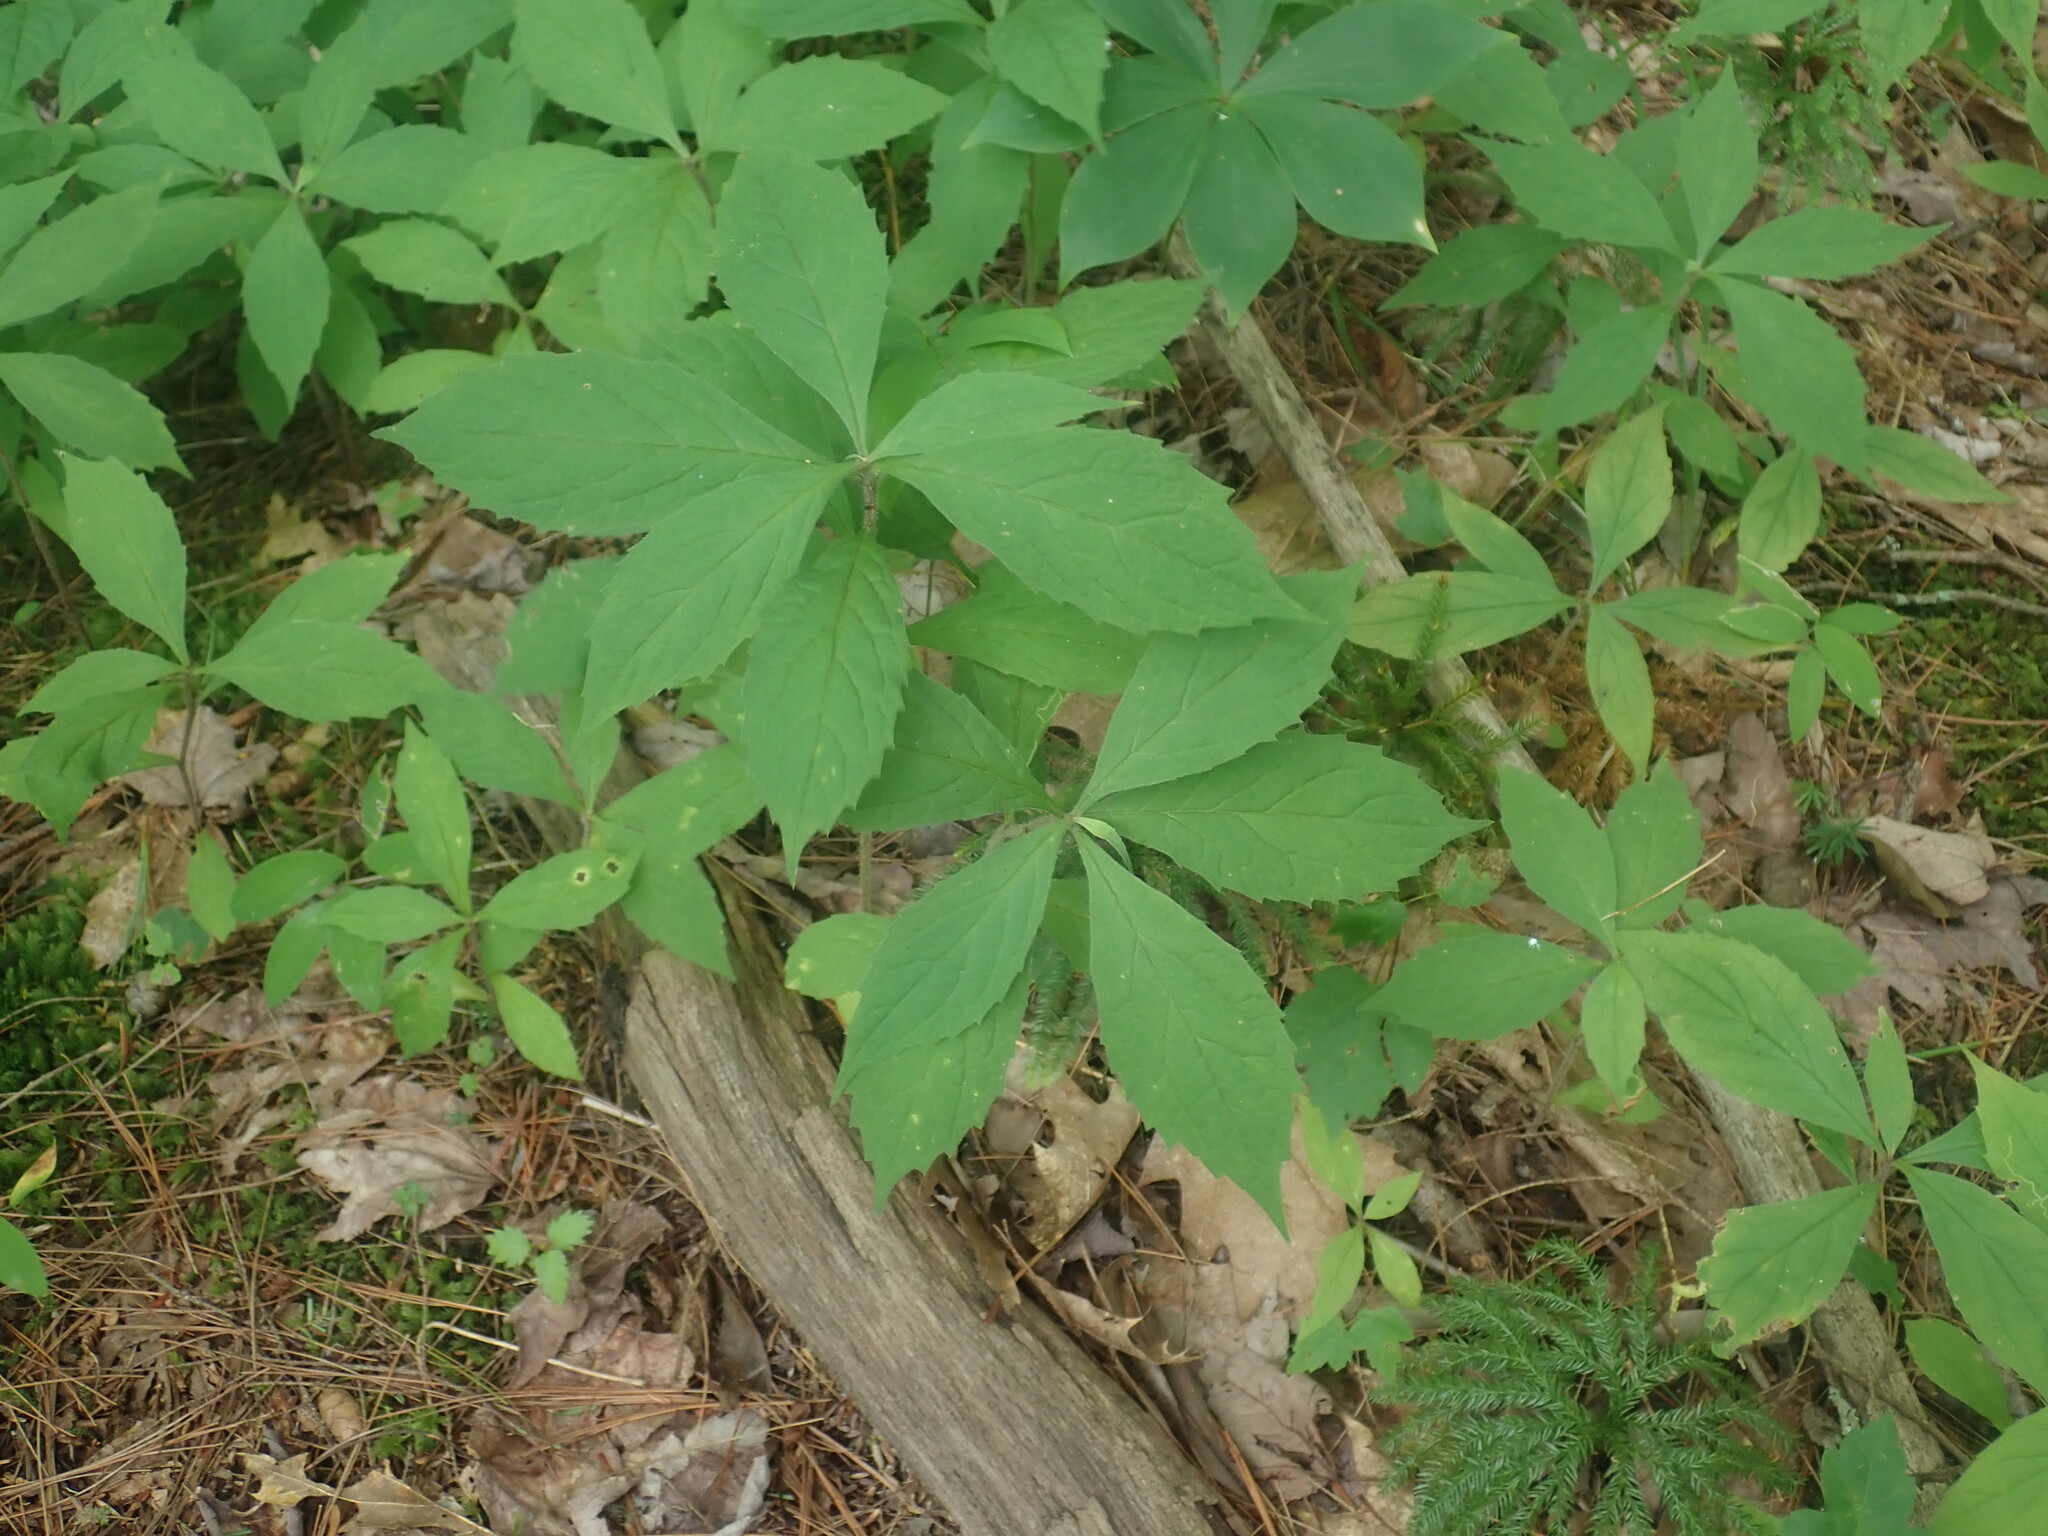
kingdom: Plantae
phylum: Tracheophyta
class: Magnoliopsida
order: Asterales
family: Asteraceae
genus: Oclemena
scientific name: Oclemena acuminata
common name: Mountain aster
